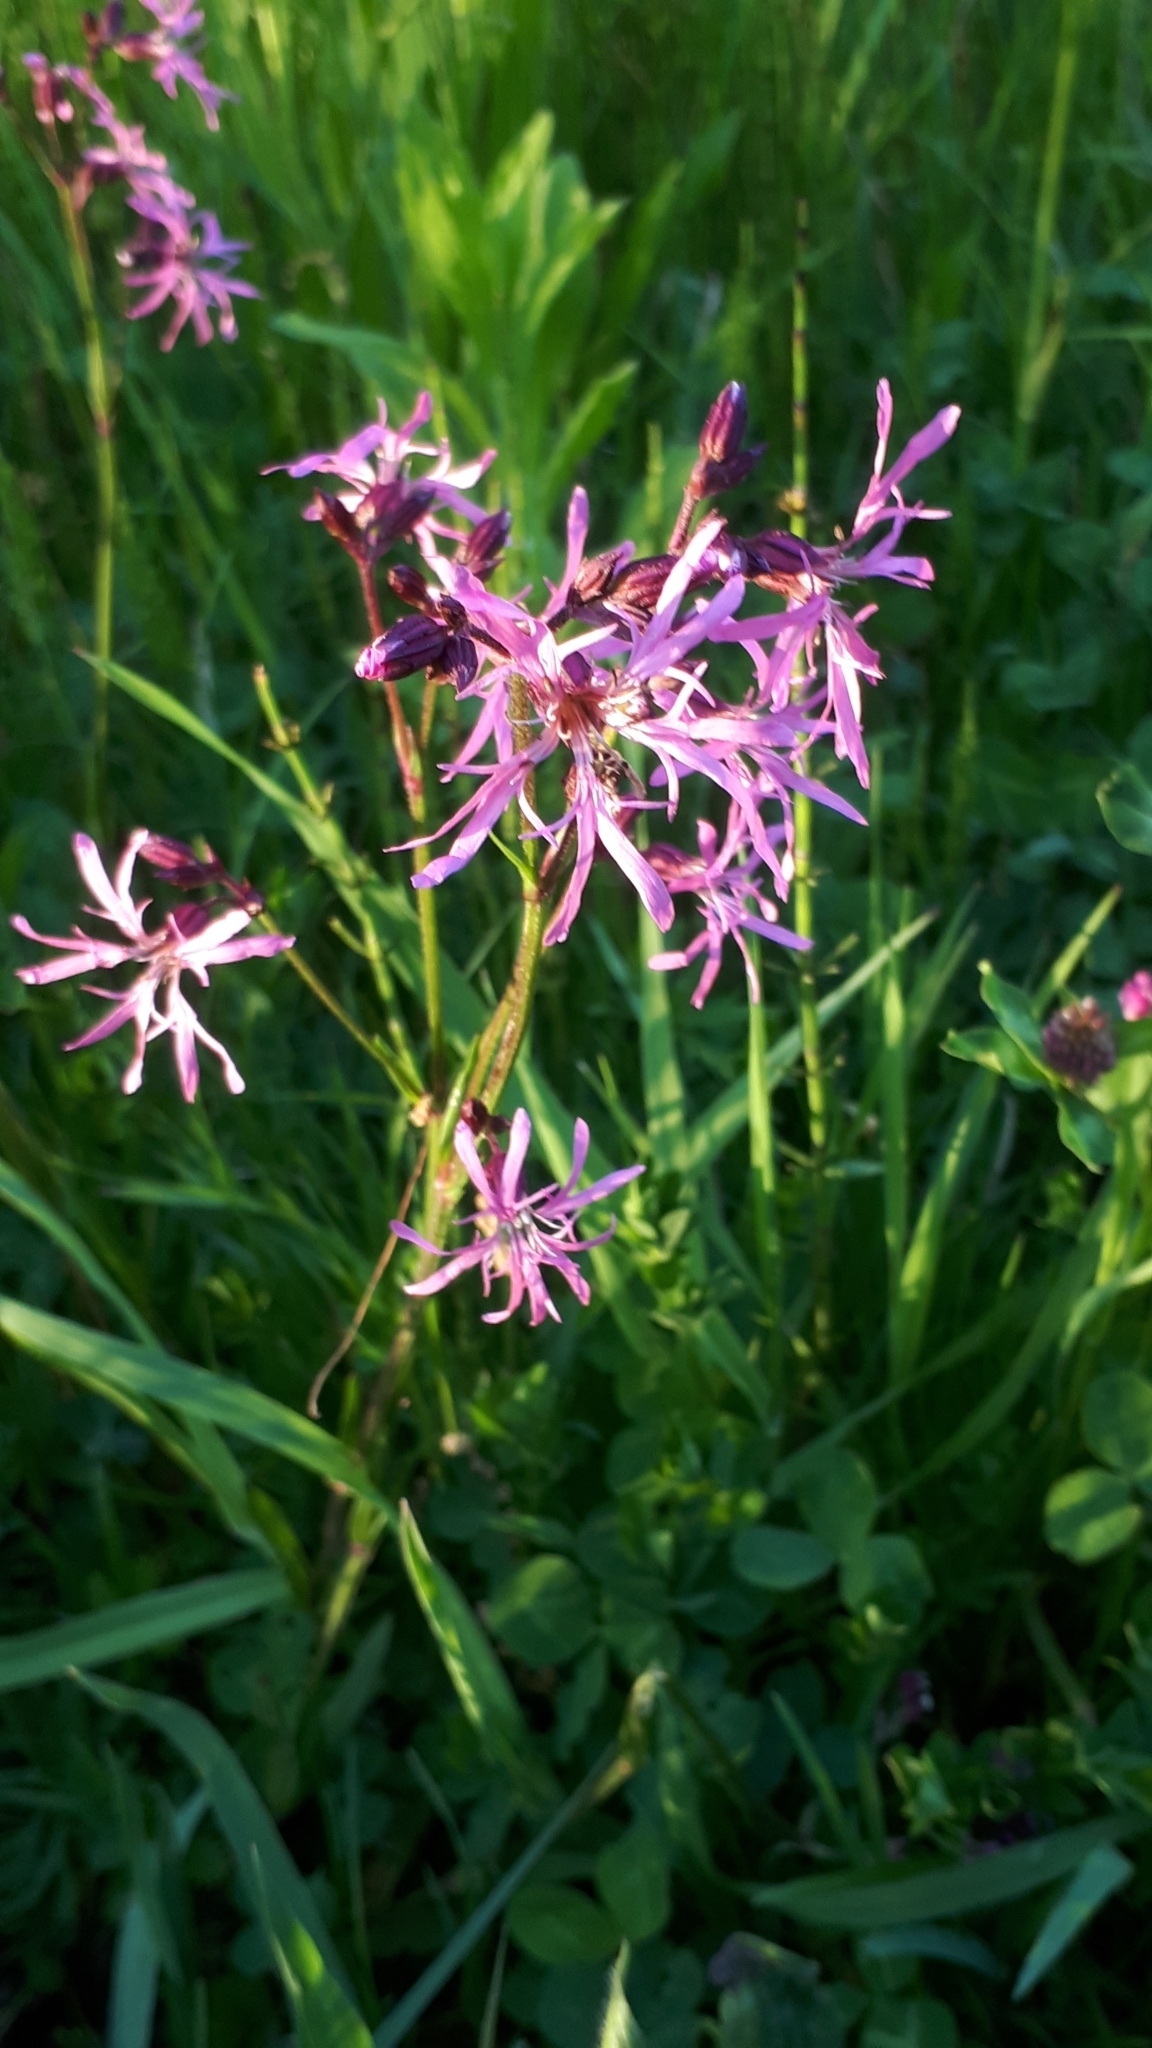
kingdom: Plantae
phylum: Tracheophyta
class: Magnoliopsida
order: Caryophyllales
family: Caryophyllaceae
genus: Silene
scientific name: Silene flos-cuculi
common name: Ragged-robin
